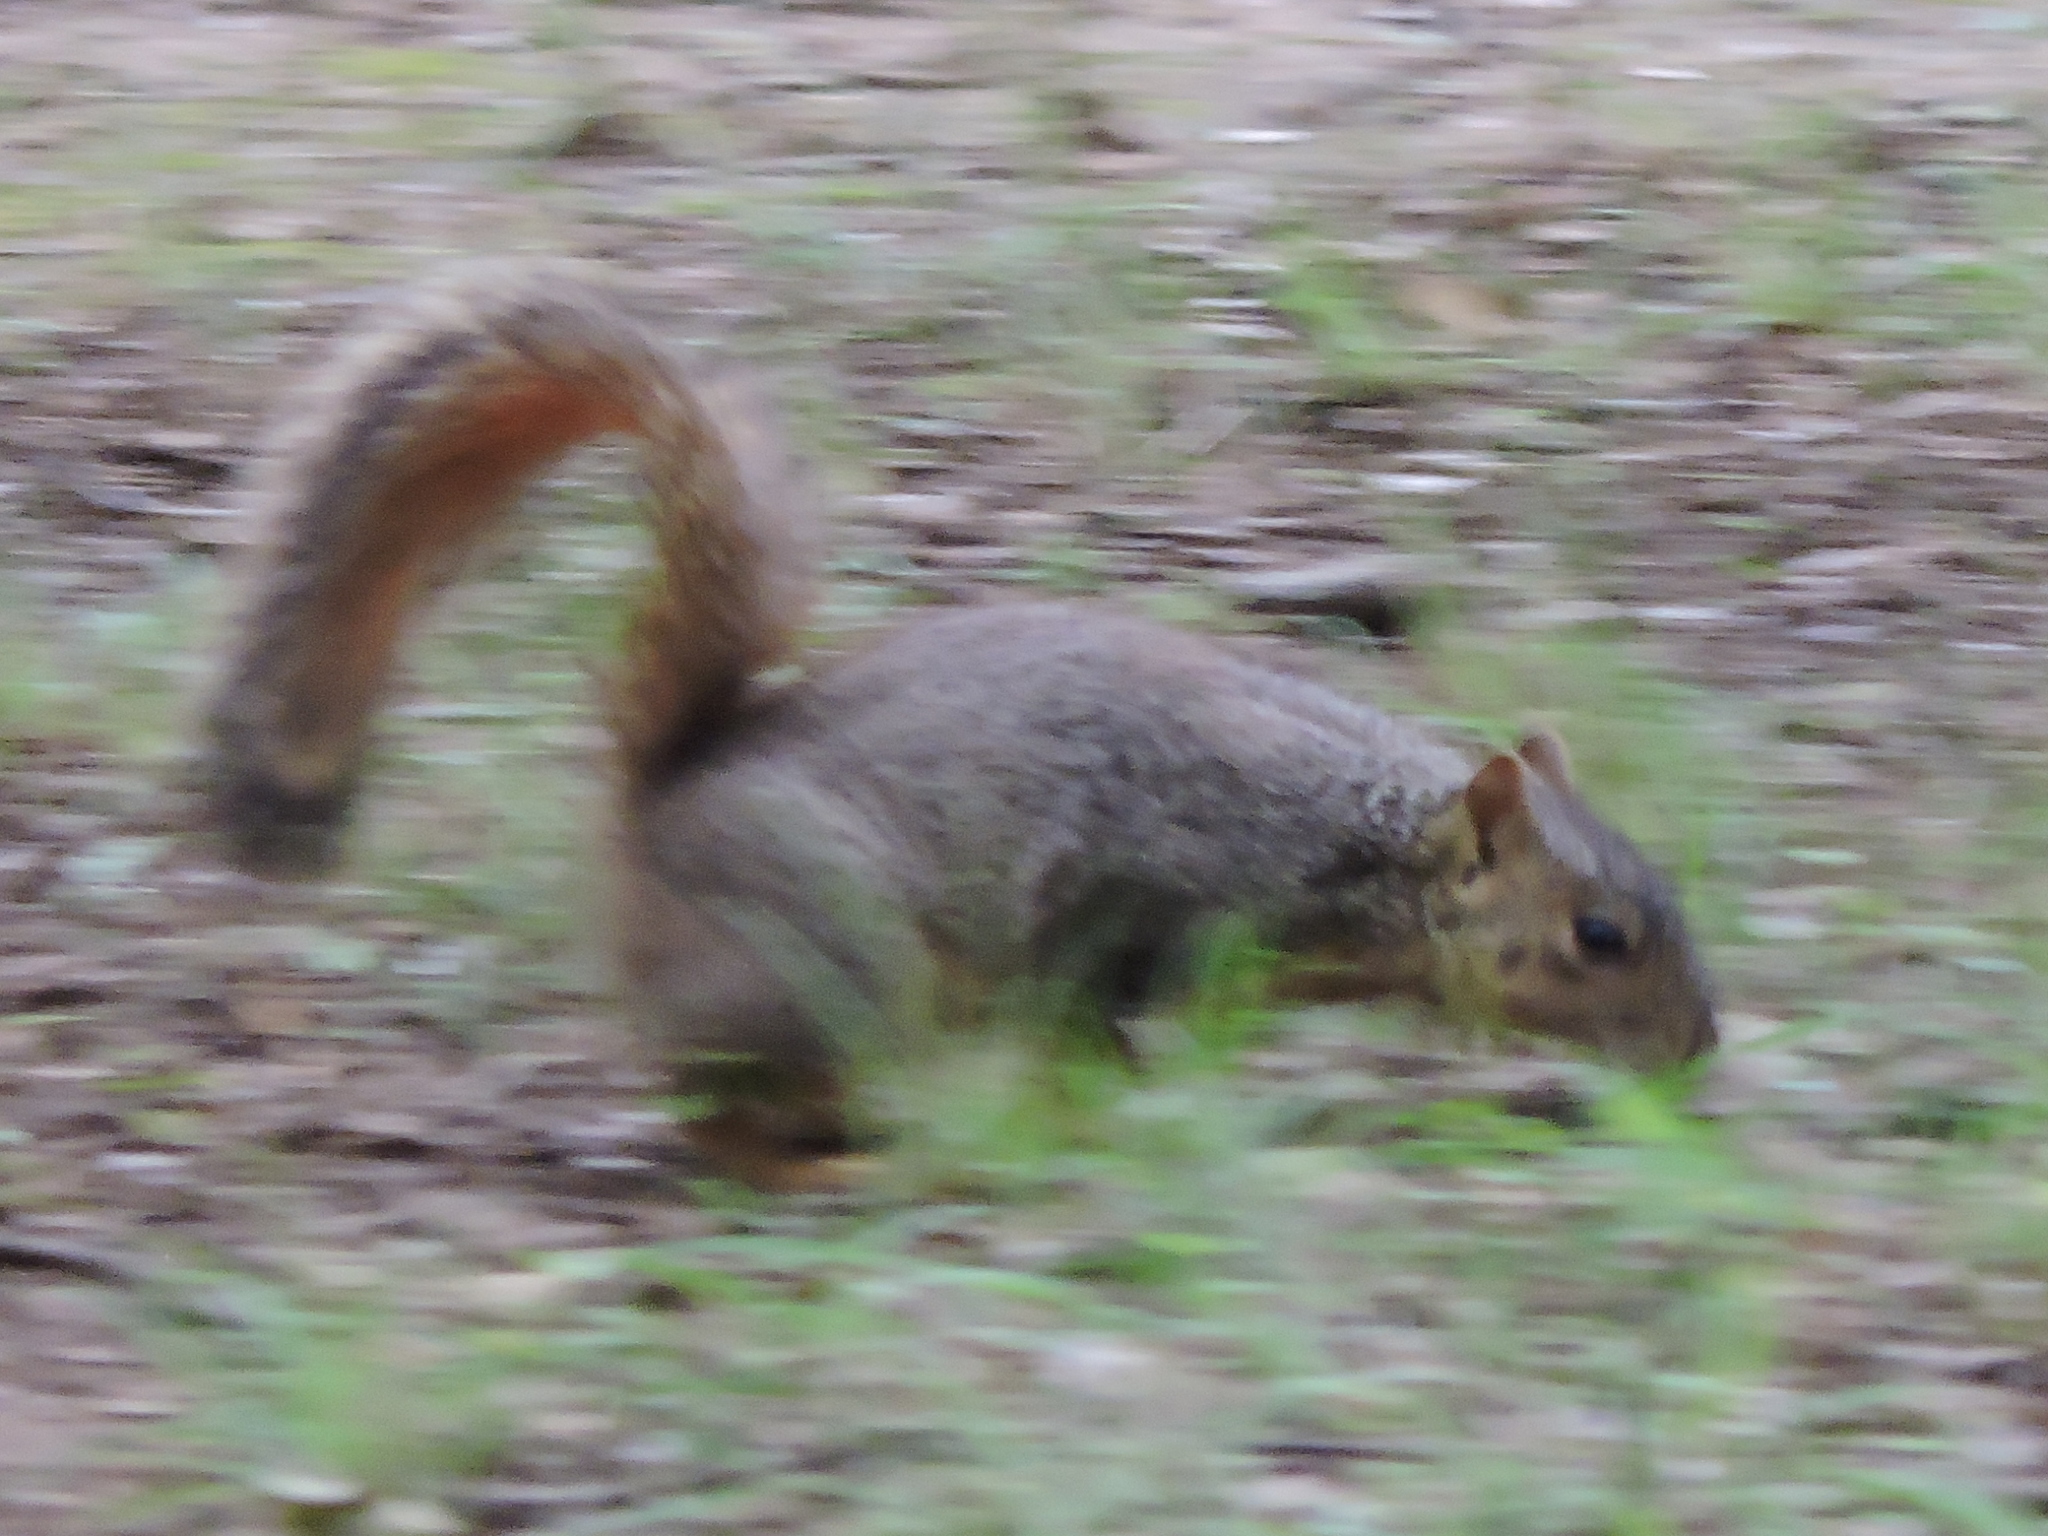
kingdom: Animalia
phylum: Chordata
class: Mammalia
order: Rodentia
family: Sciuridae
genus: Sciurus
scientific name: Sciurus niger
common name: Fox squirrel
